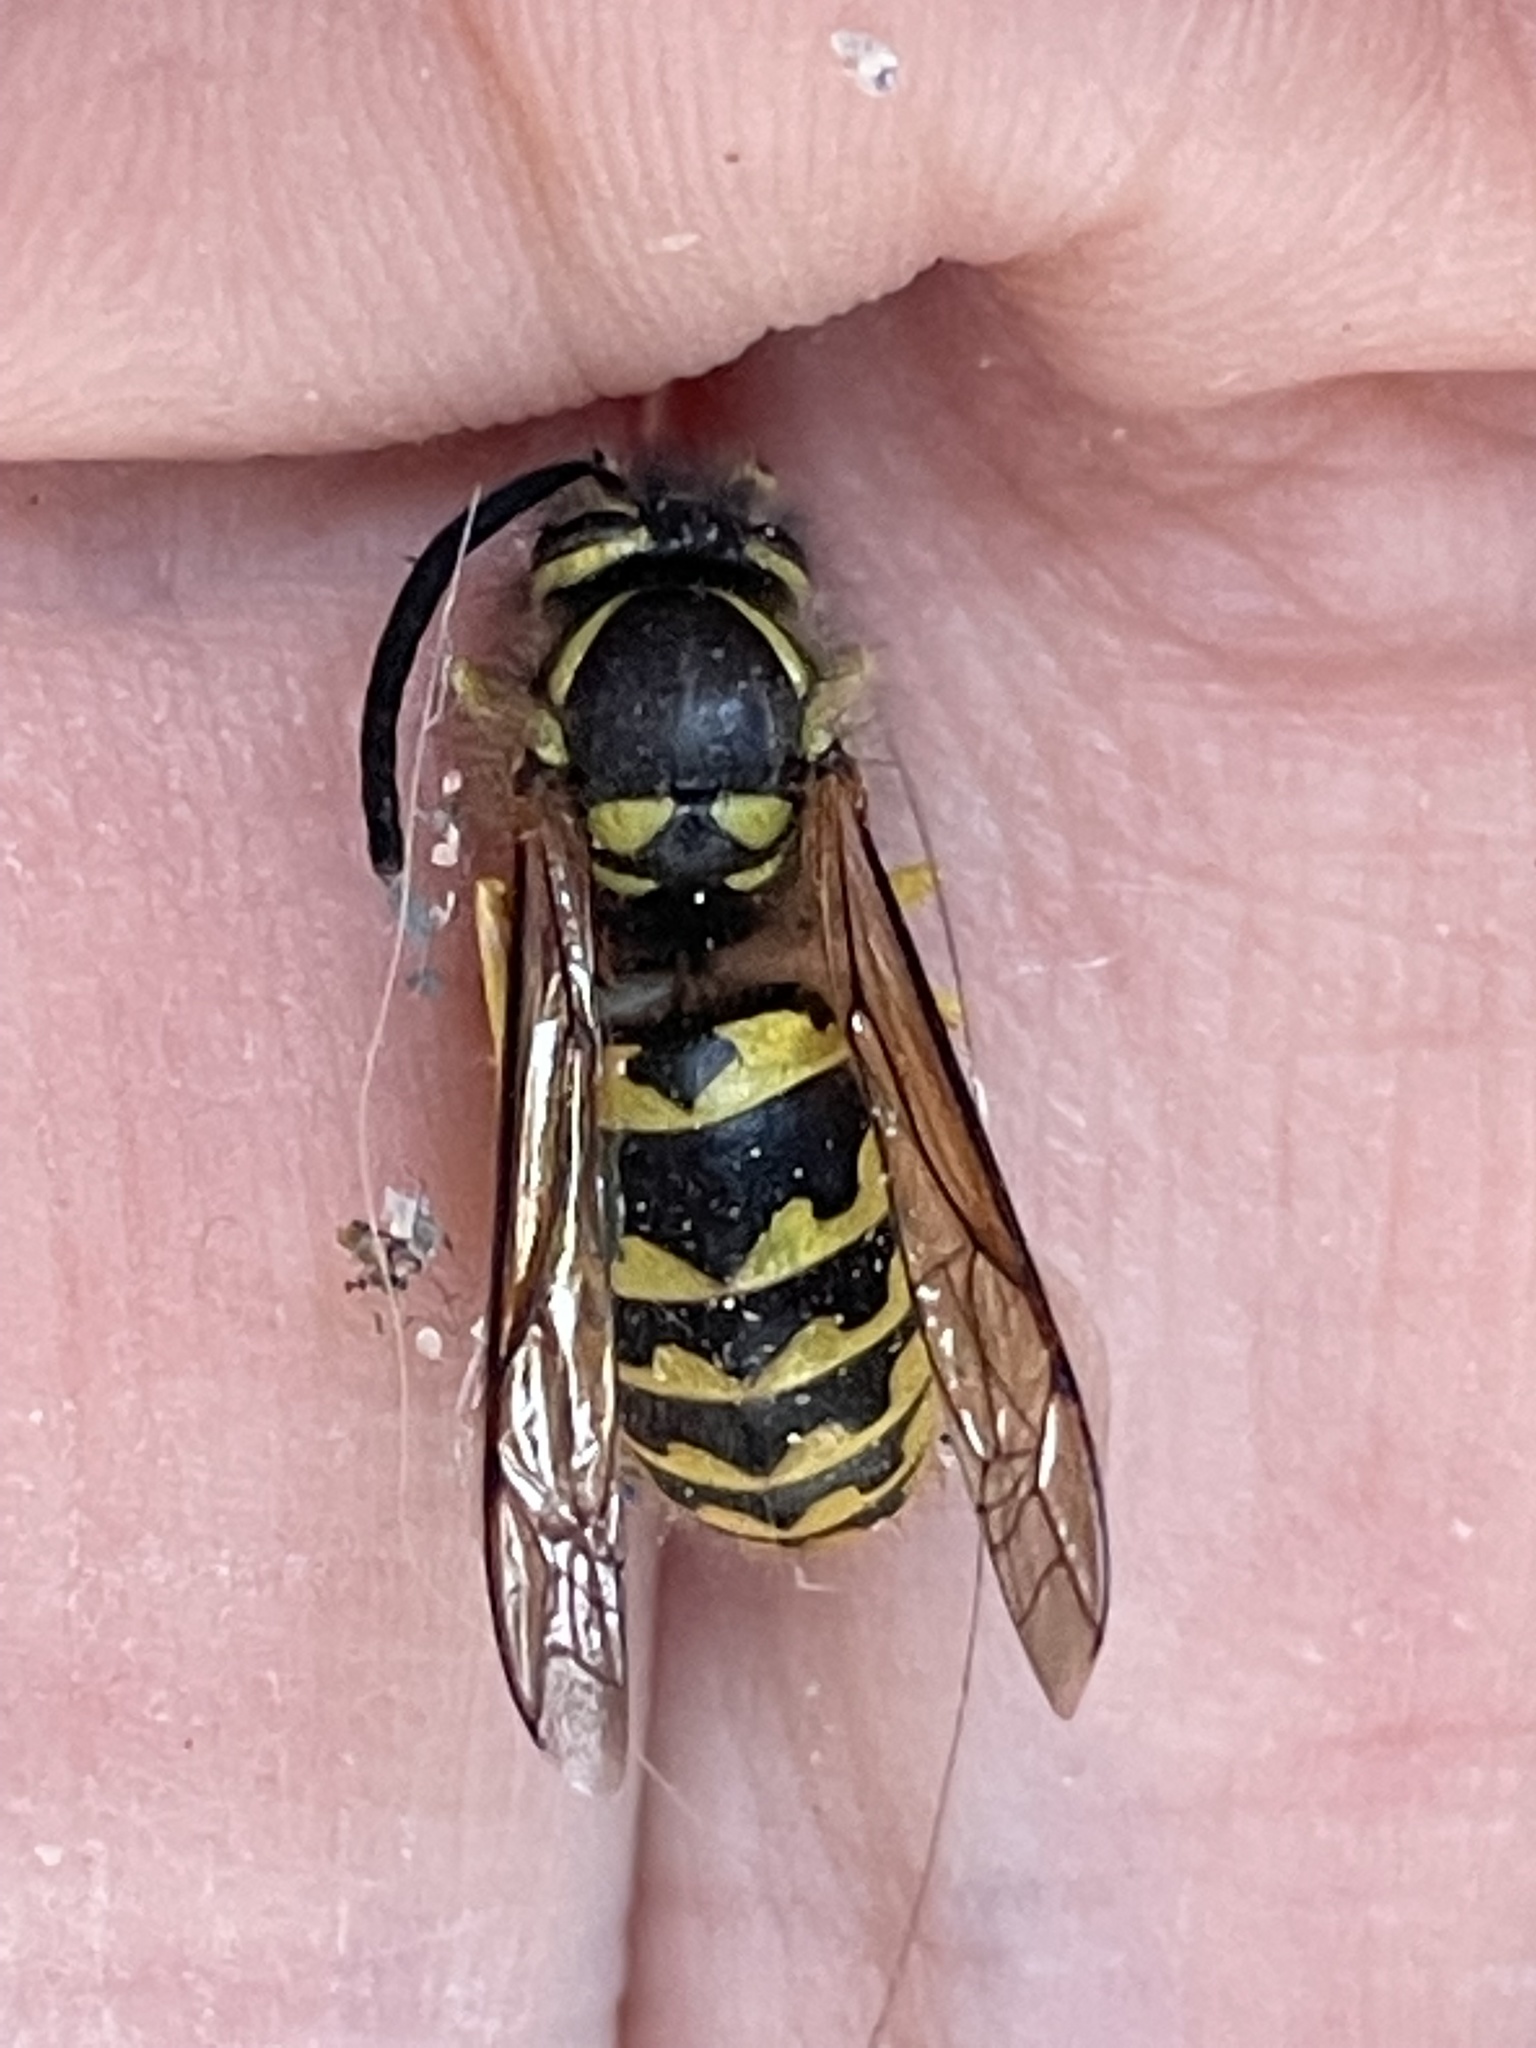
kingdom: Animalia
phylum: Arthropoda
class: Insecta
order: Hymenoptera
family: Vespidae
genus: Vespula
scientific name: Vespula pensylvanica
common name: Western yellowjacket
